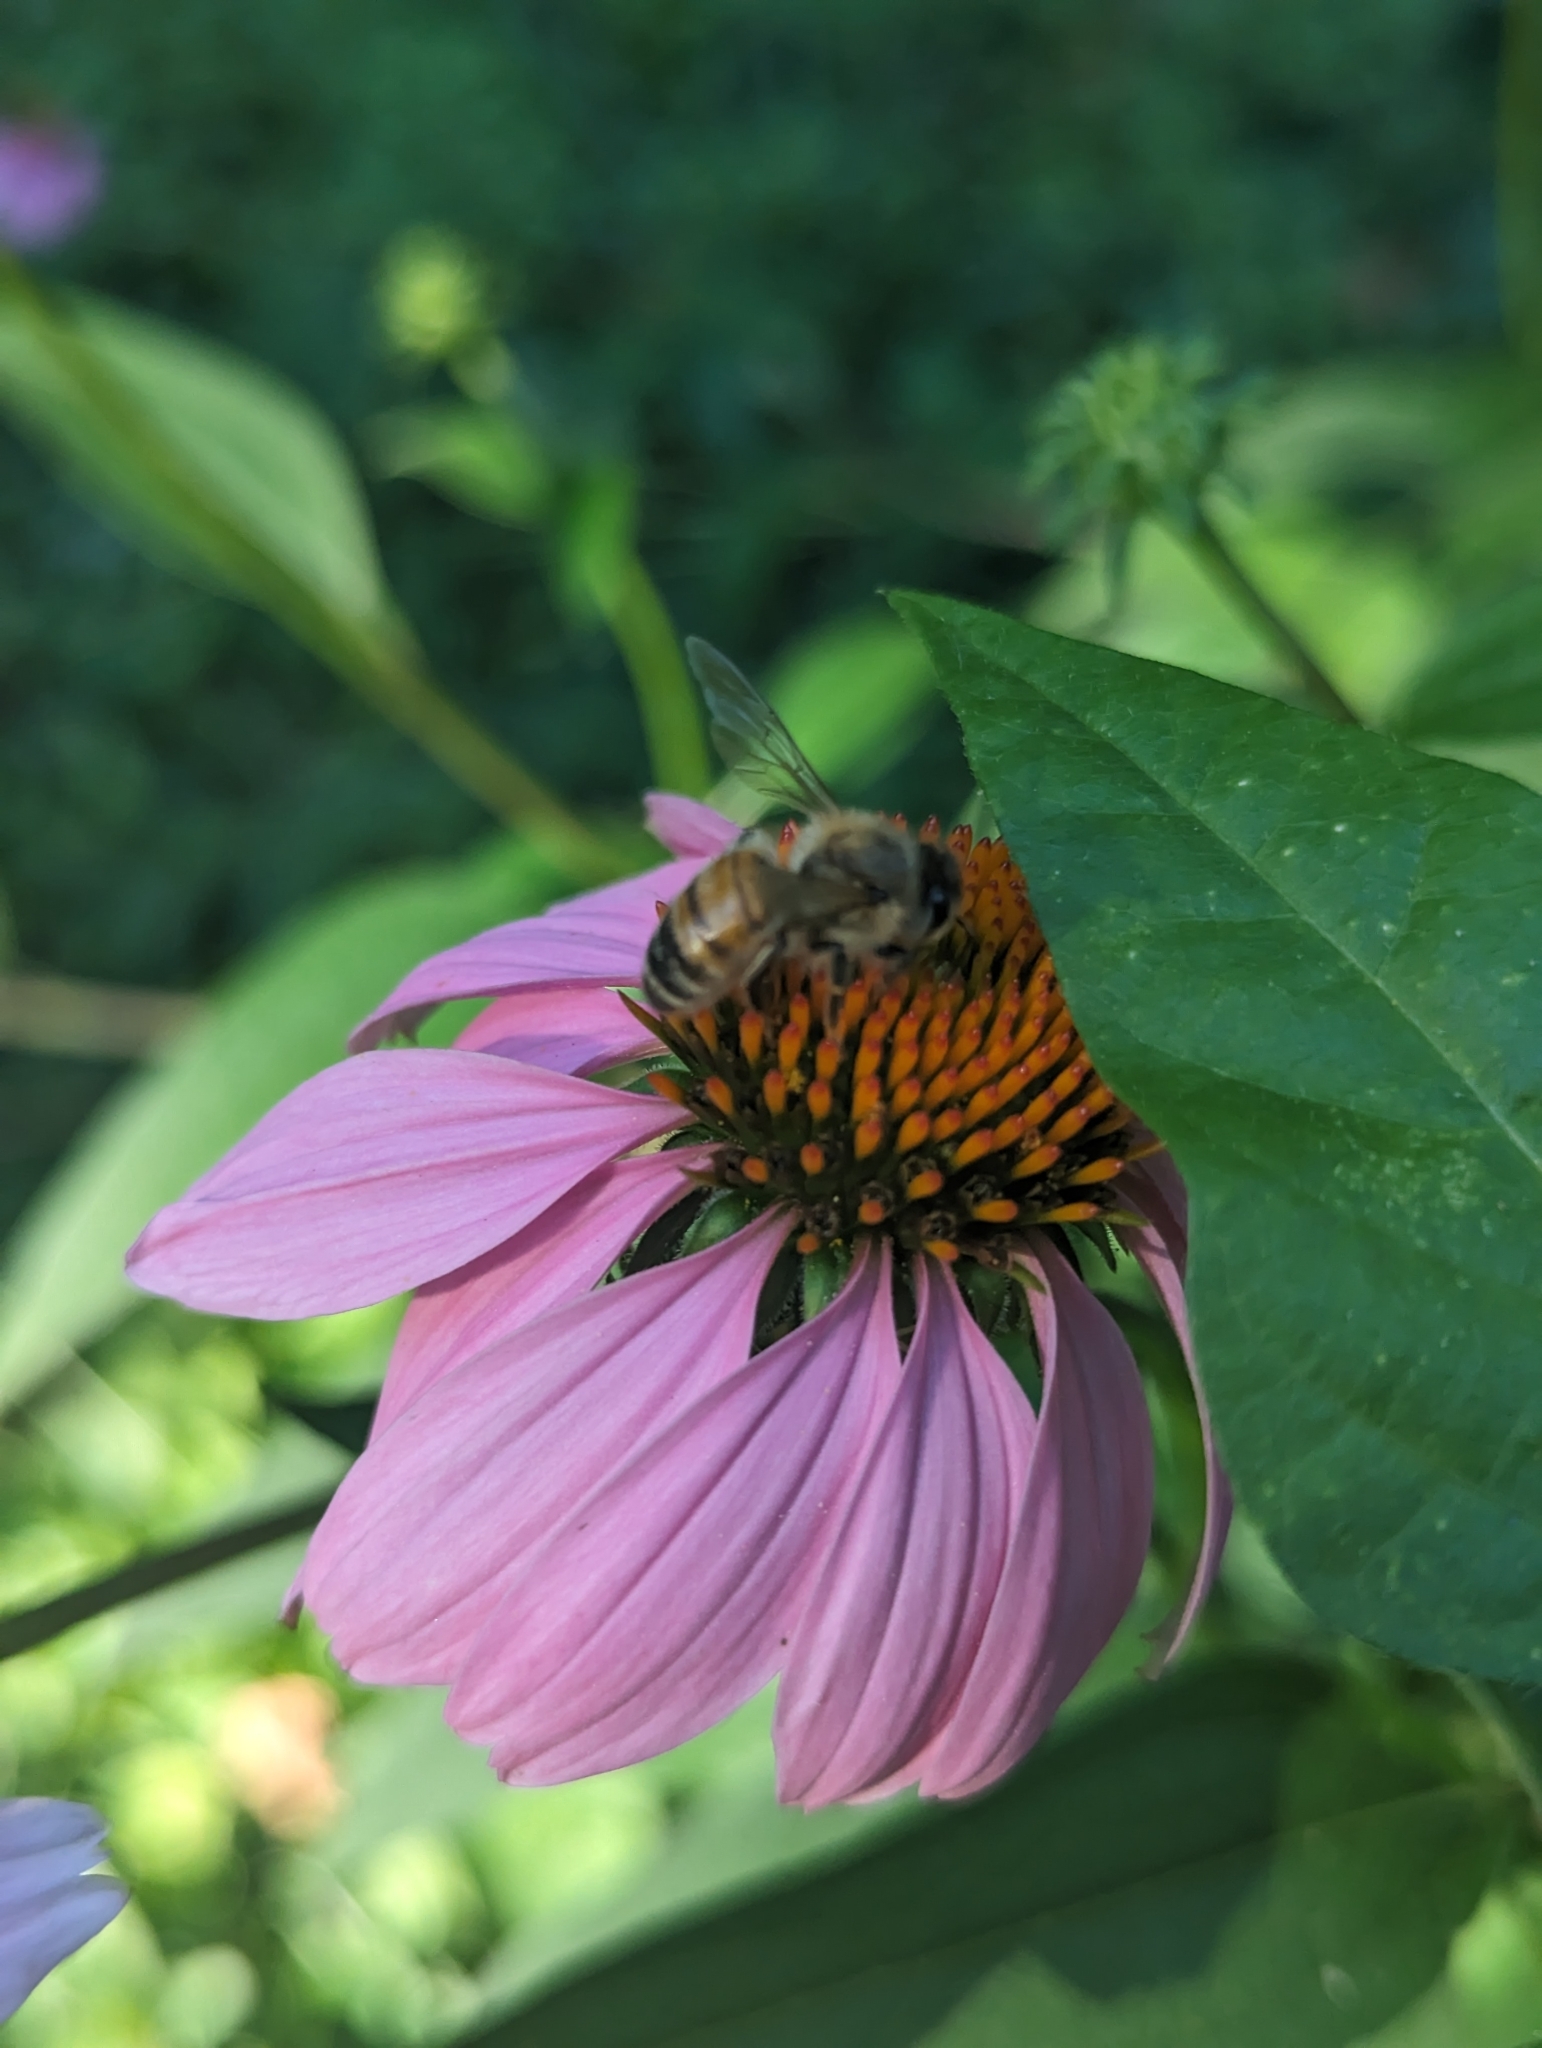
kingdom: Animalia
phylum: Arthropoda
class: Insecta
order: Hymenoptera
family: Apidae
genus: Apis
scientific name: Apis mellifera
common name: Honey bee
